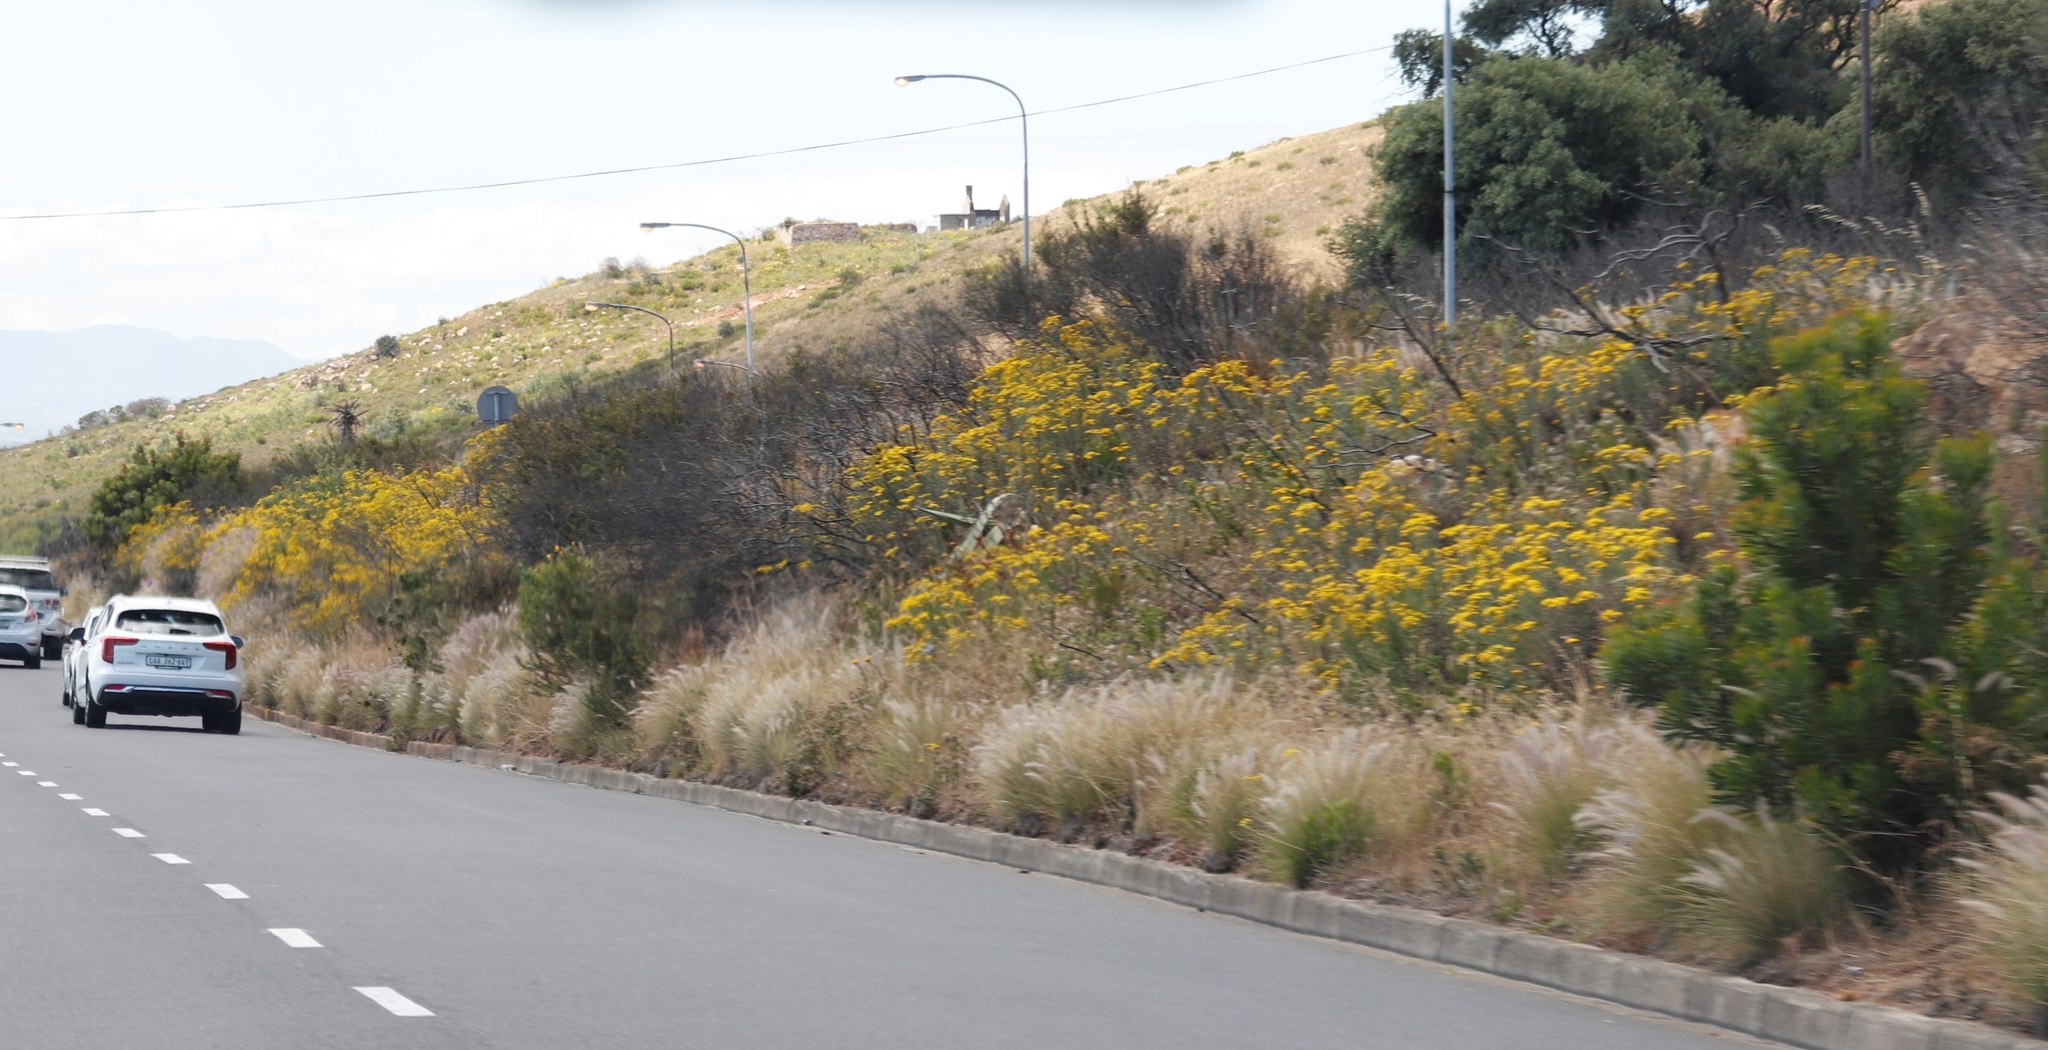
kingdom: Plantae
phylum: Tracheophyta
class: Liliopsida
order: Poales
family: Poaceae
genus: Cenchrus
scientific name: Cenchrus setaceus
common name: Crimson fountaingrass
